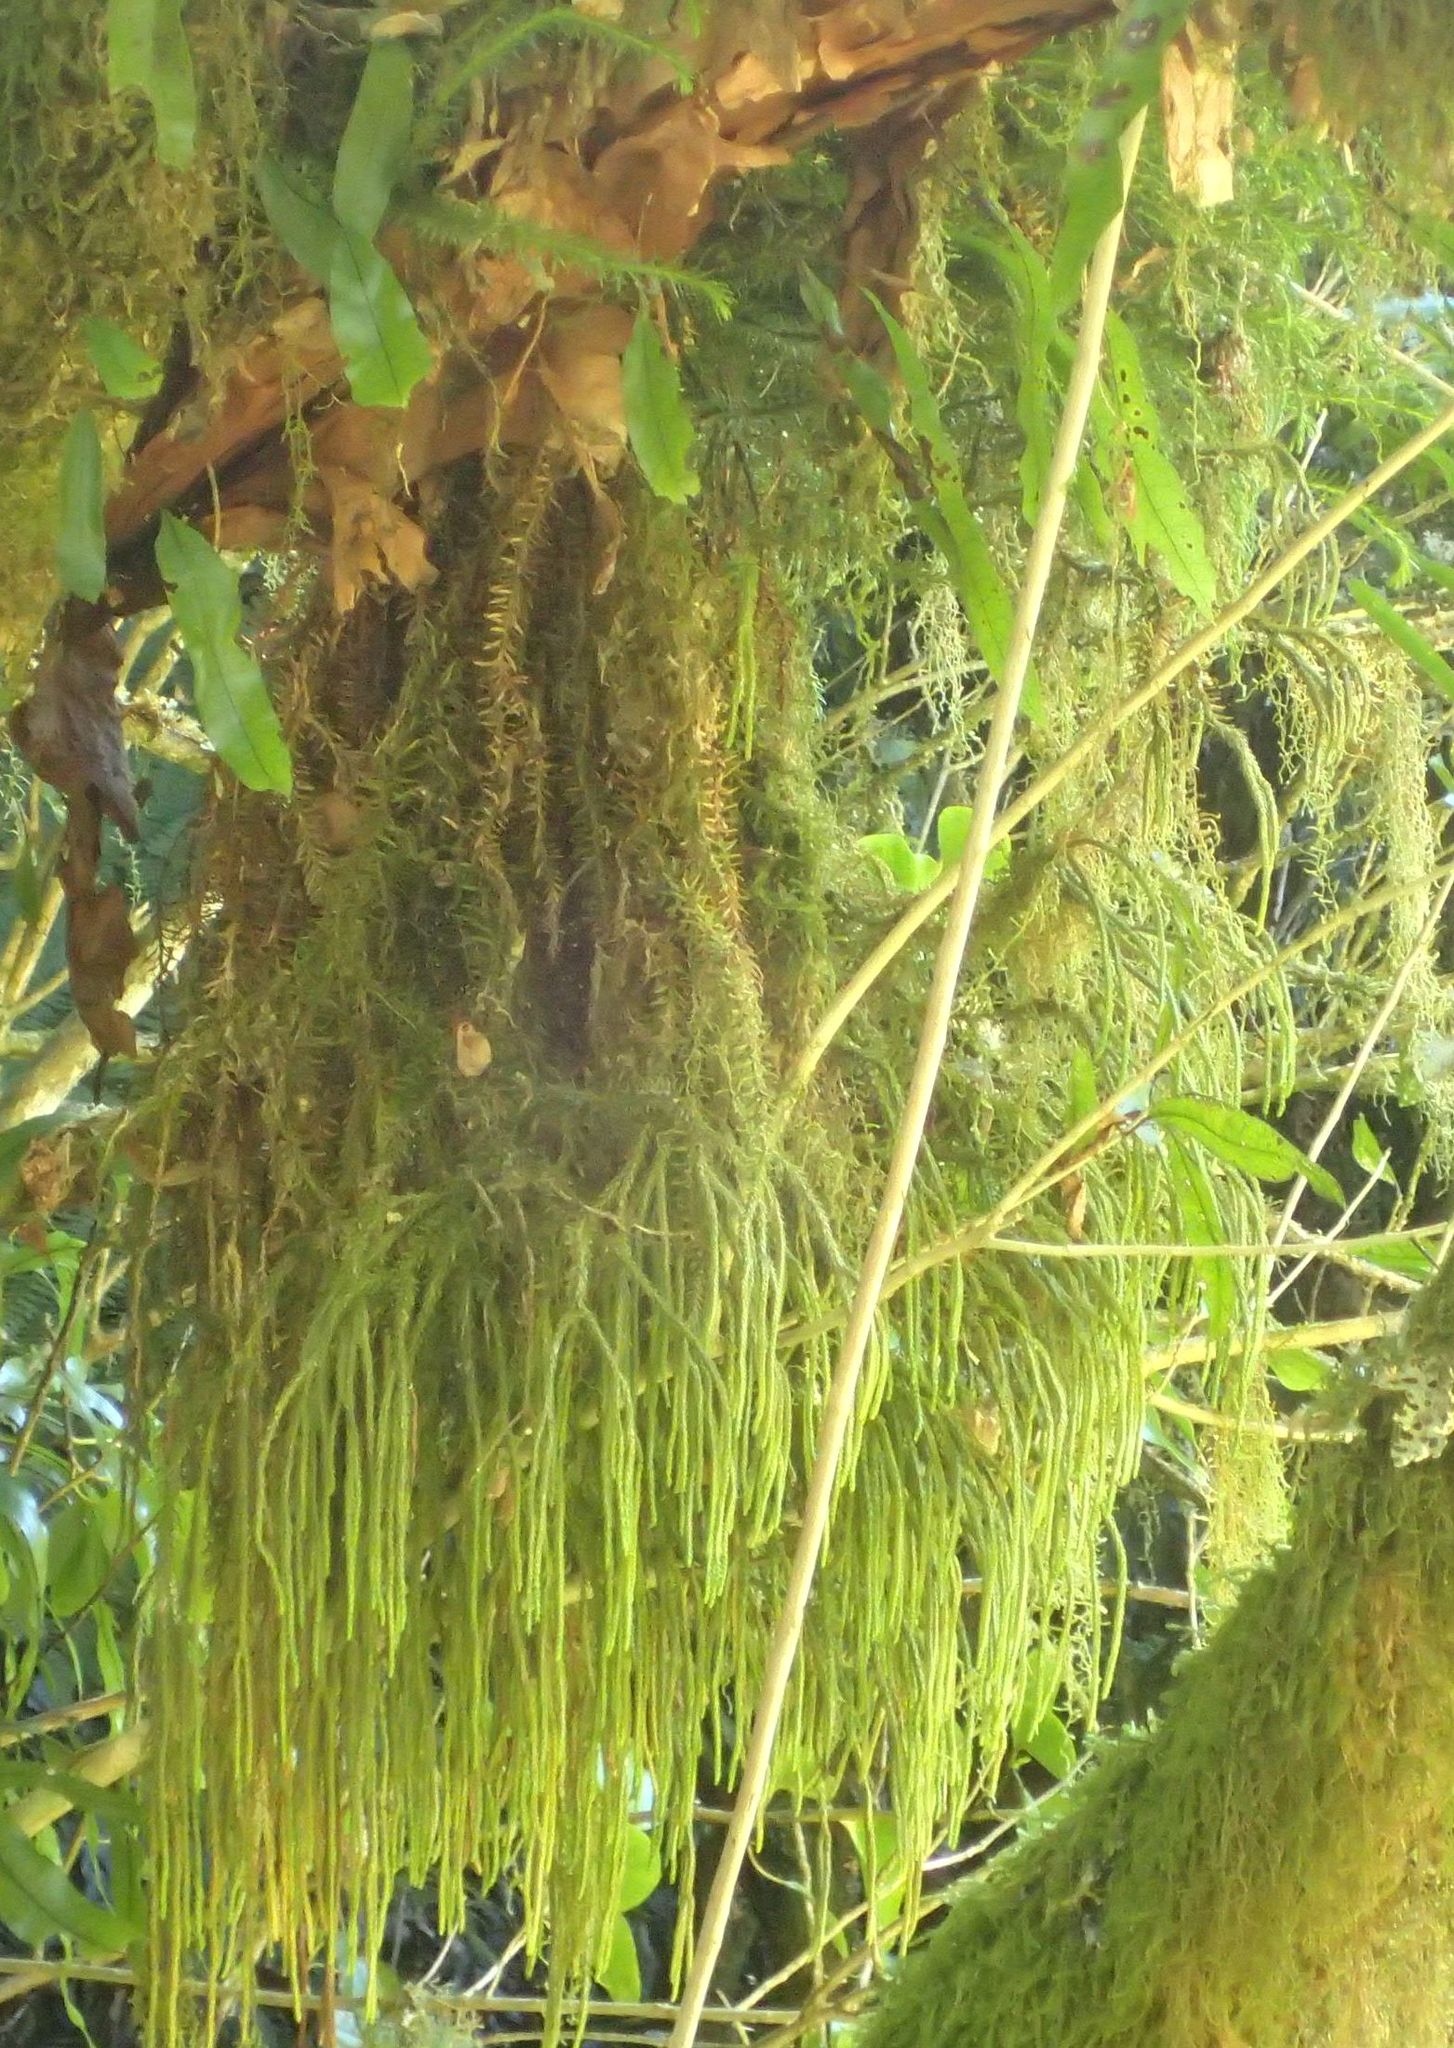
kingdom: Plantae
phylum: Tracheophyta
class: Lycopodiopsida
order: Lycopodiales
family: Lycopodiaceae
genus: Phlegmariurus
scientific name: Phlegmariurus varius
